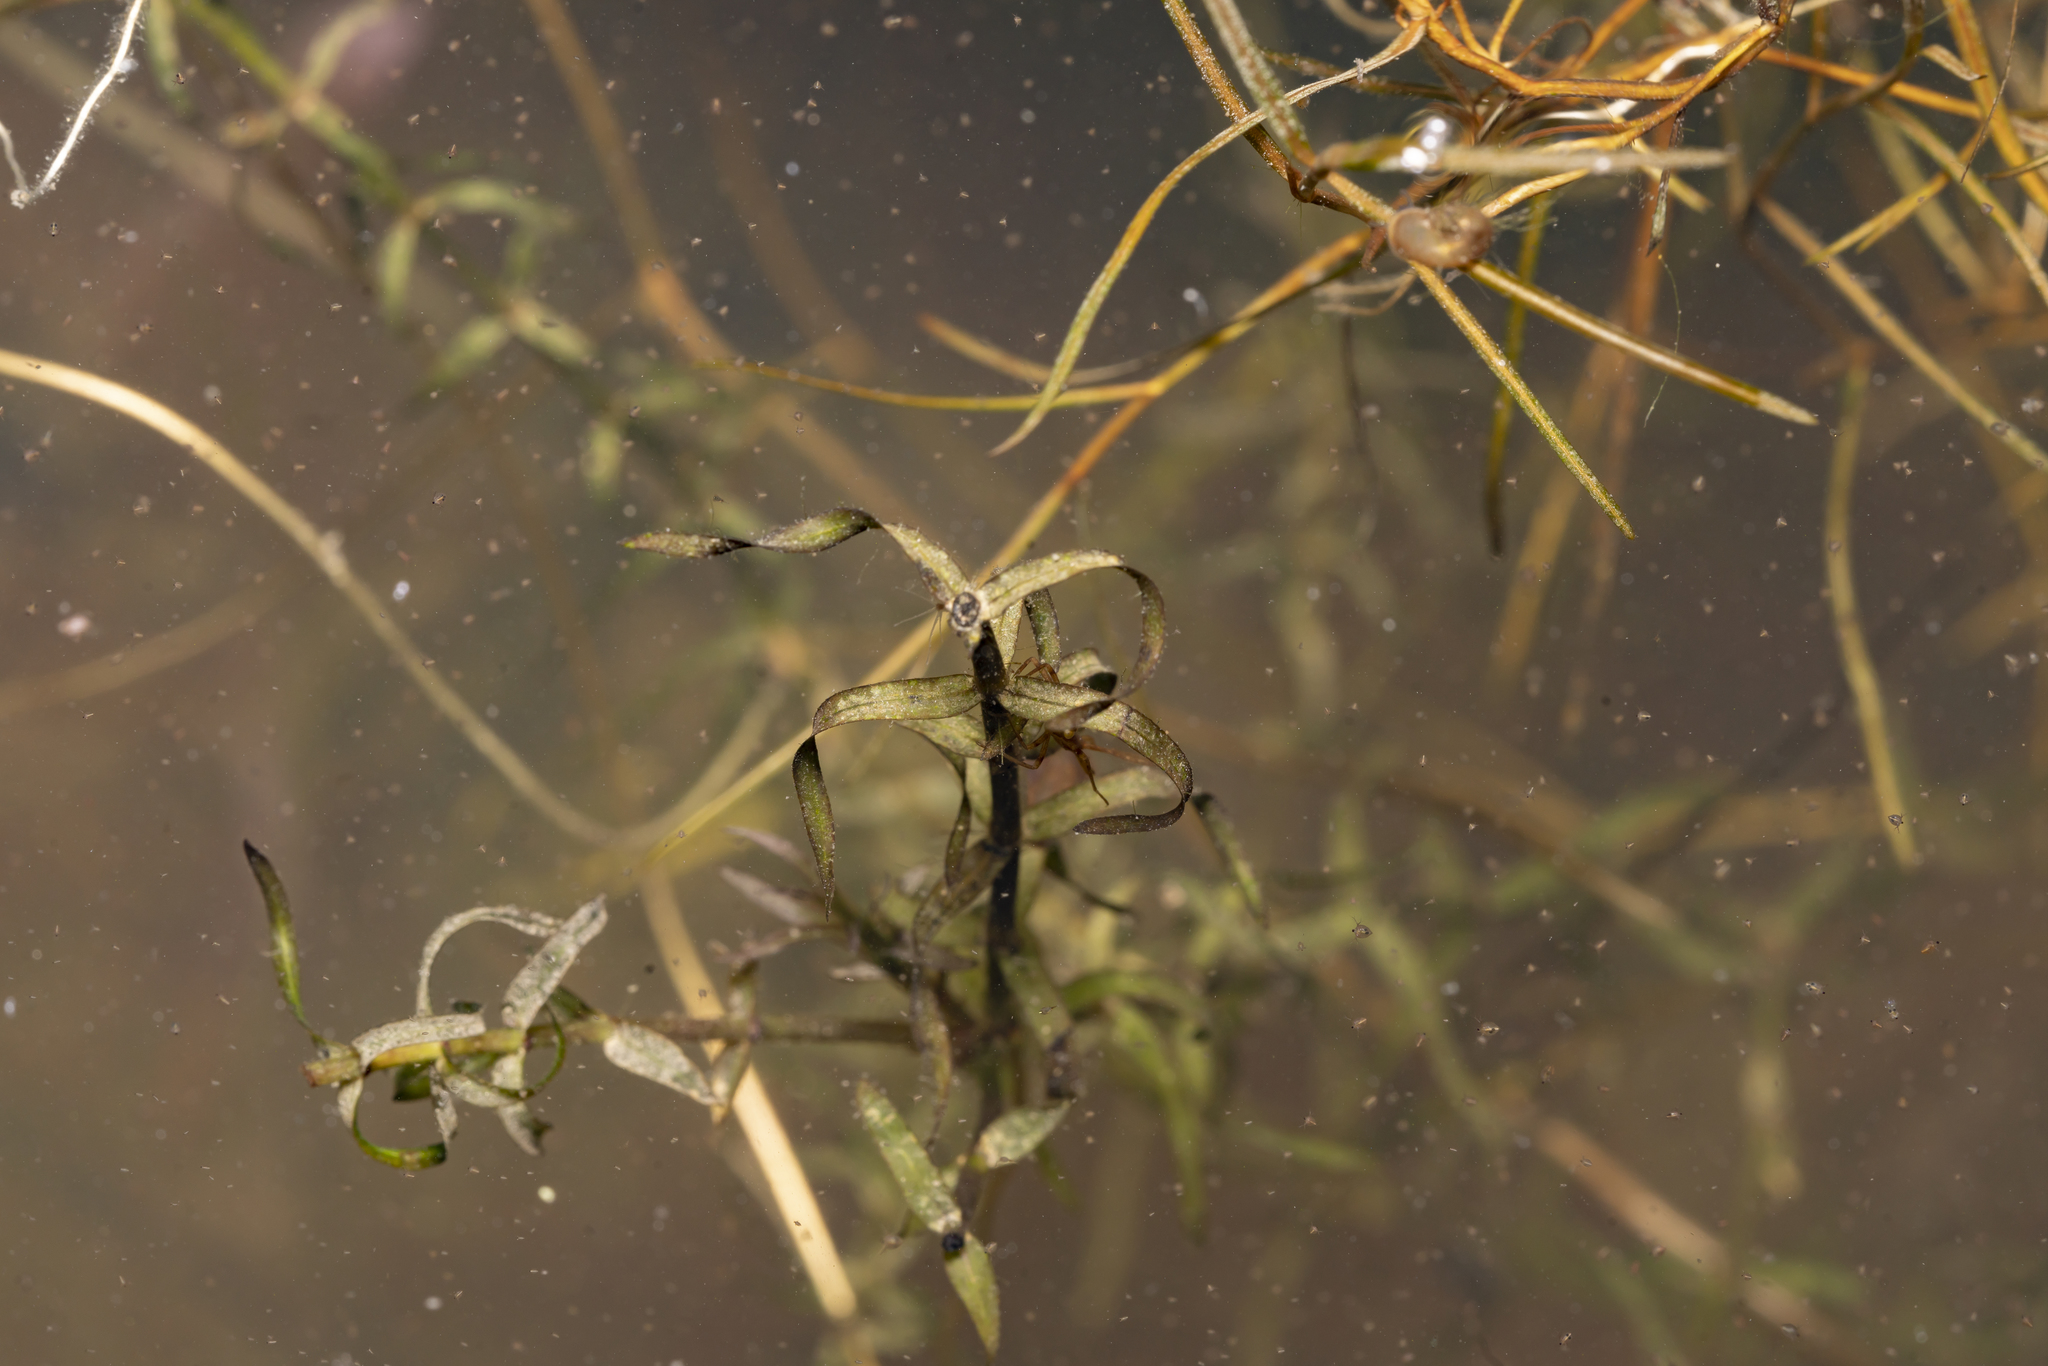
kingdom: Plantae
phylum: Tracheophyta
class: Liliopsida
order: Alismatales
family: Hydrocharitaceae
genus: Elodea
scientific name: Elodea nuttallii
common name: Nuttall's waterweed
